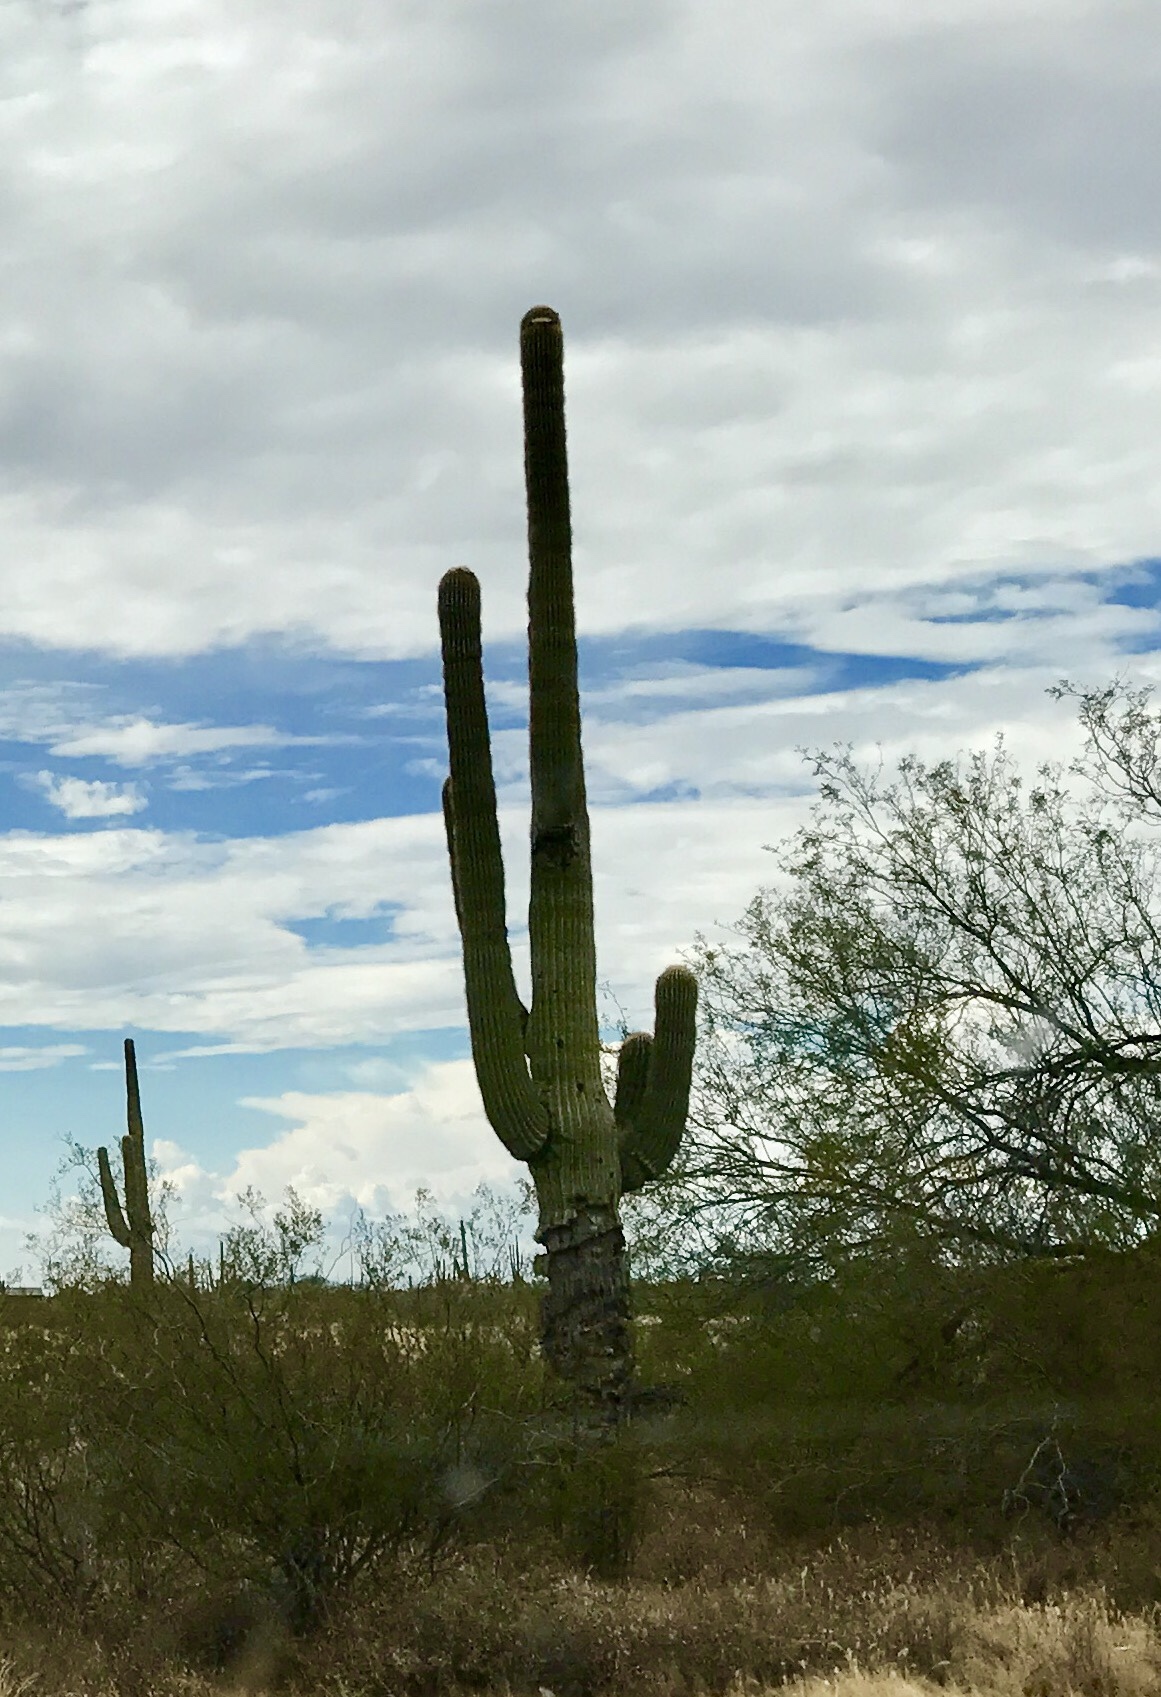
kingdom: Plantae
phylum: Tracheophyta
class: Magnoliopsida
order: Caryophyllales
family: Cactaceae
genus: Carnegiea
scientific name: Carnegiea gigantea
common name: Saguaro
